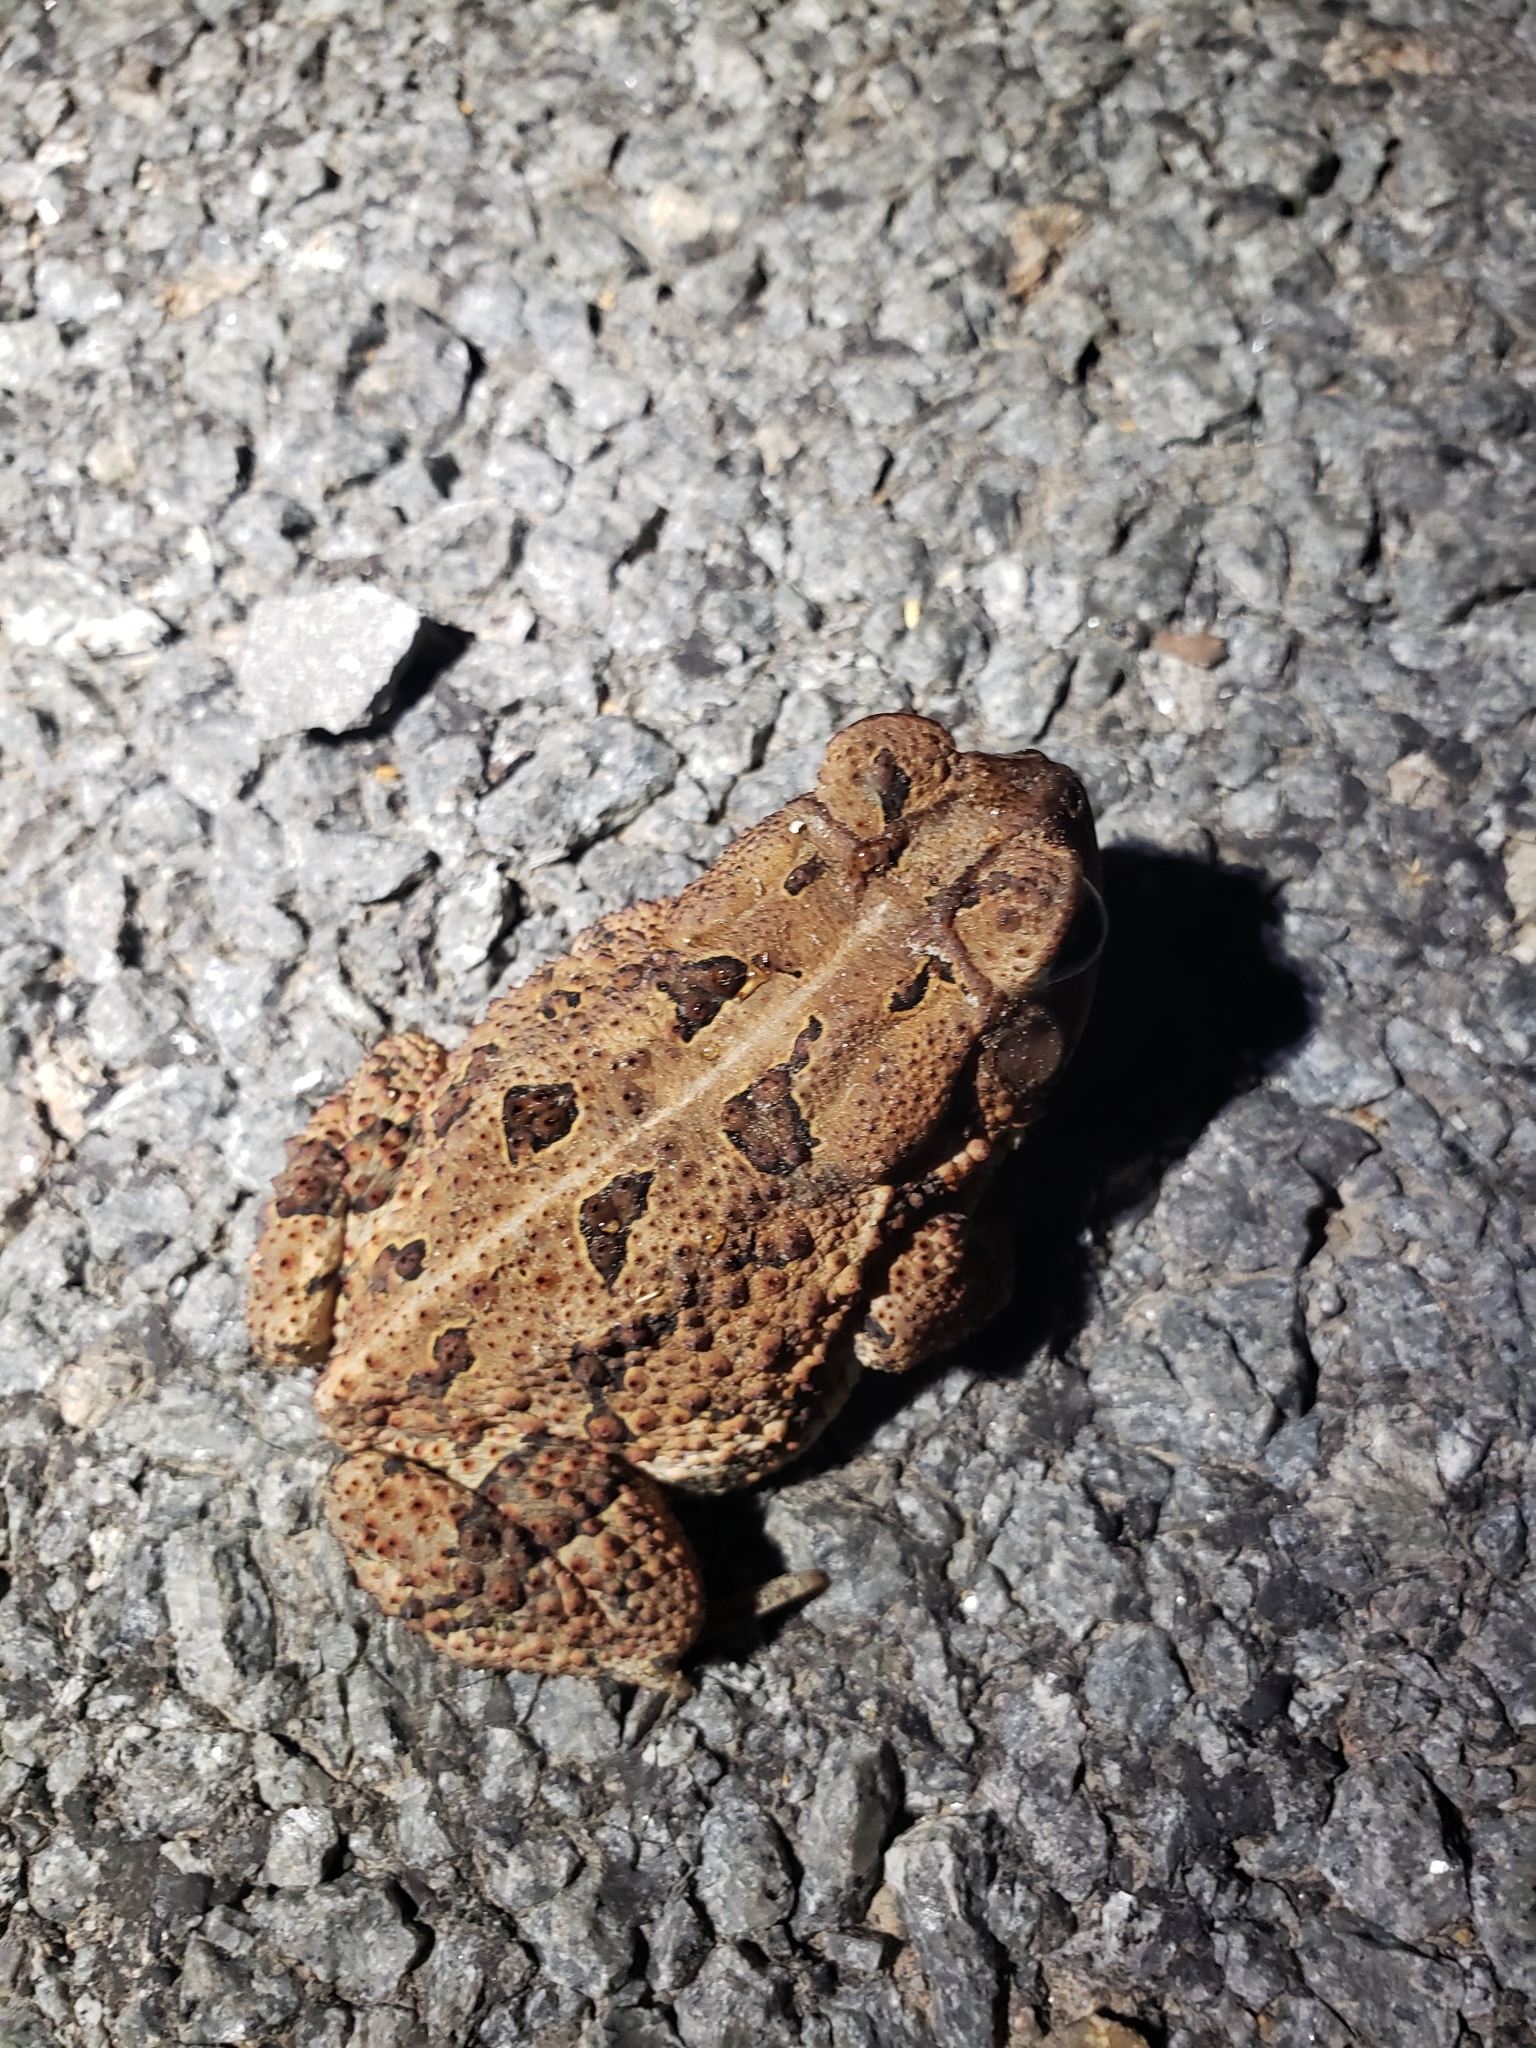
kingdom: Animalia
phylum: Chordata
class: Amphibia
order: Anura
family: Bufonidae
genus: Anaxyrus
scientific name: Anaxyrus fowleri
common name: Fowler's toad
